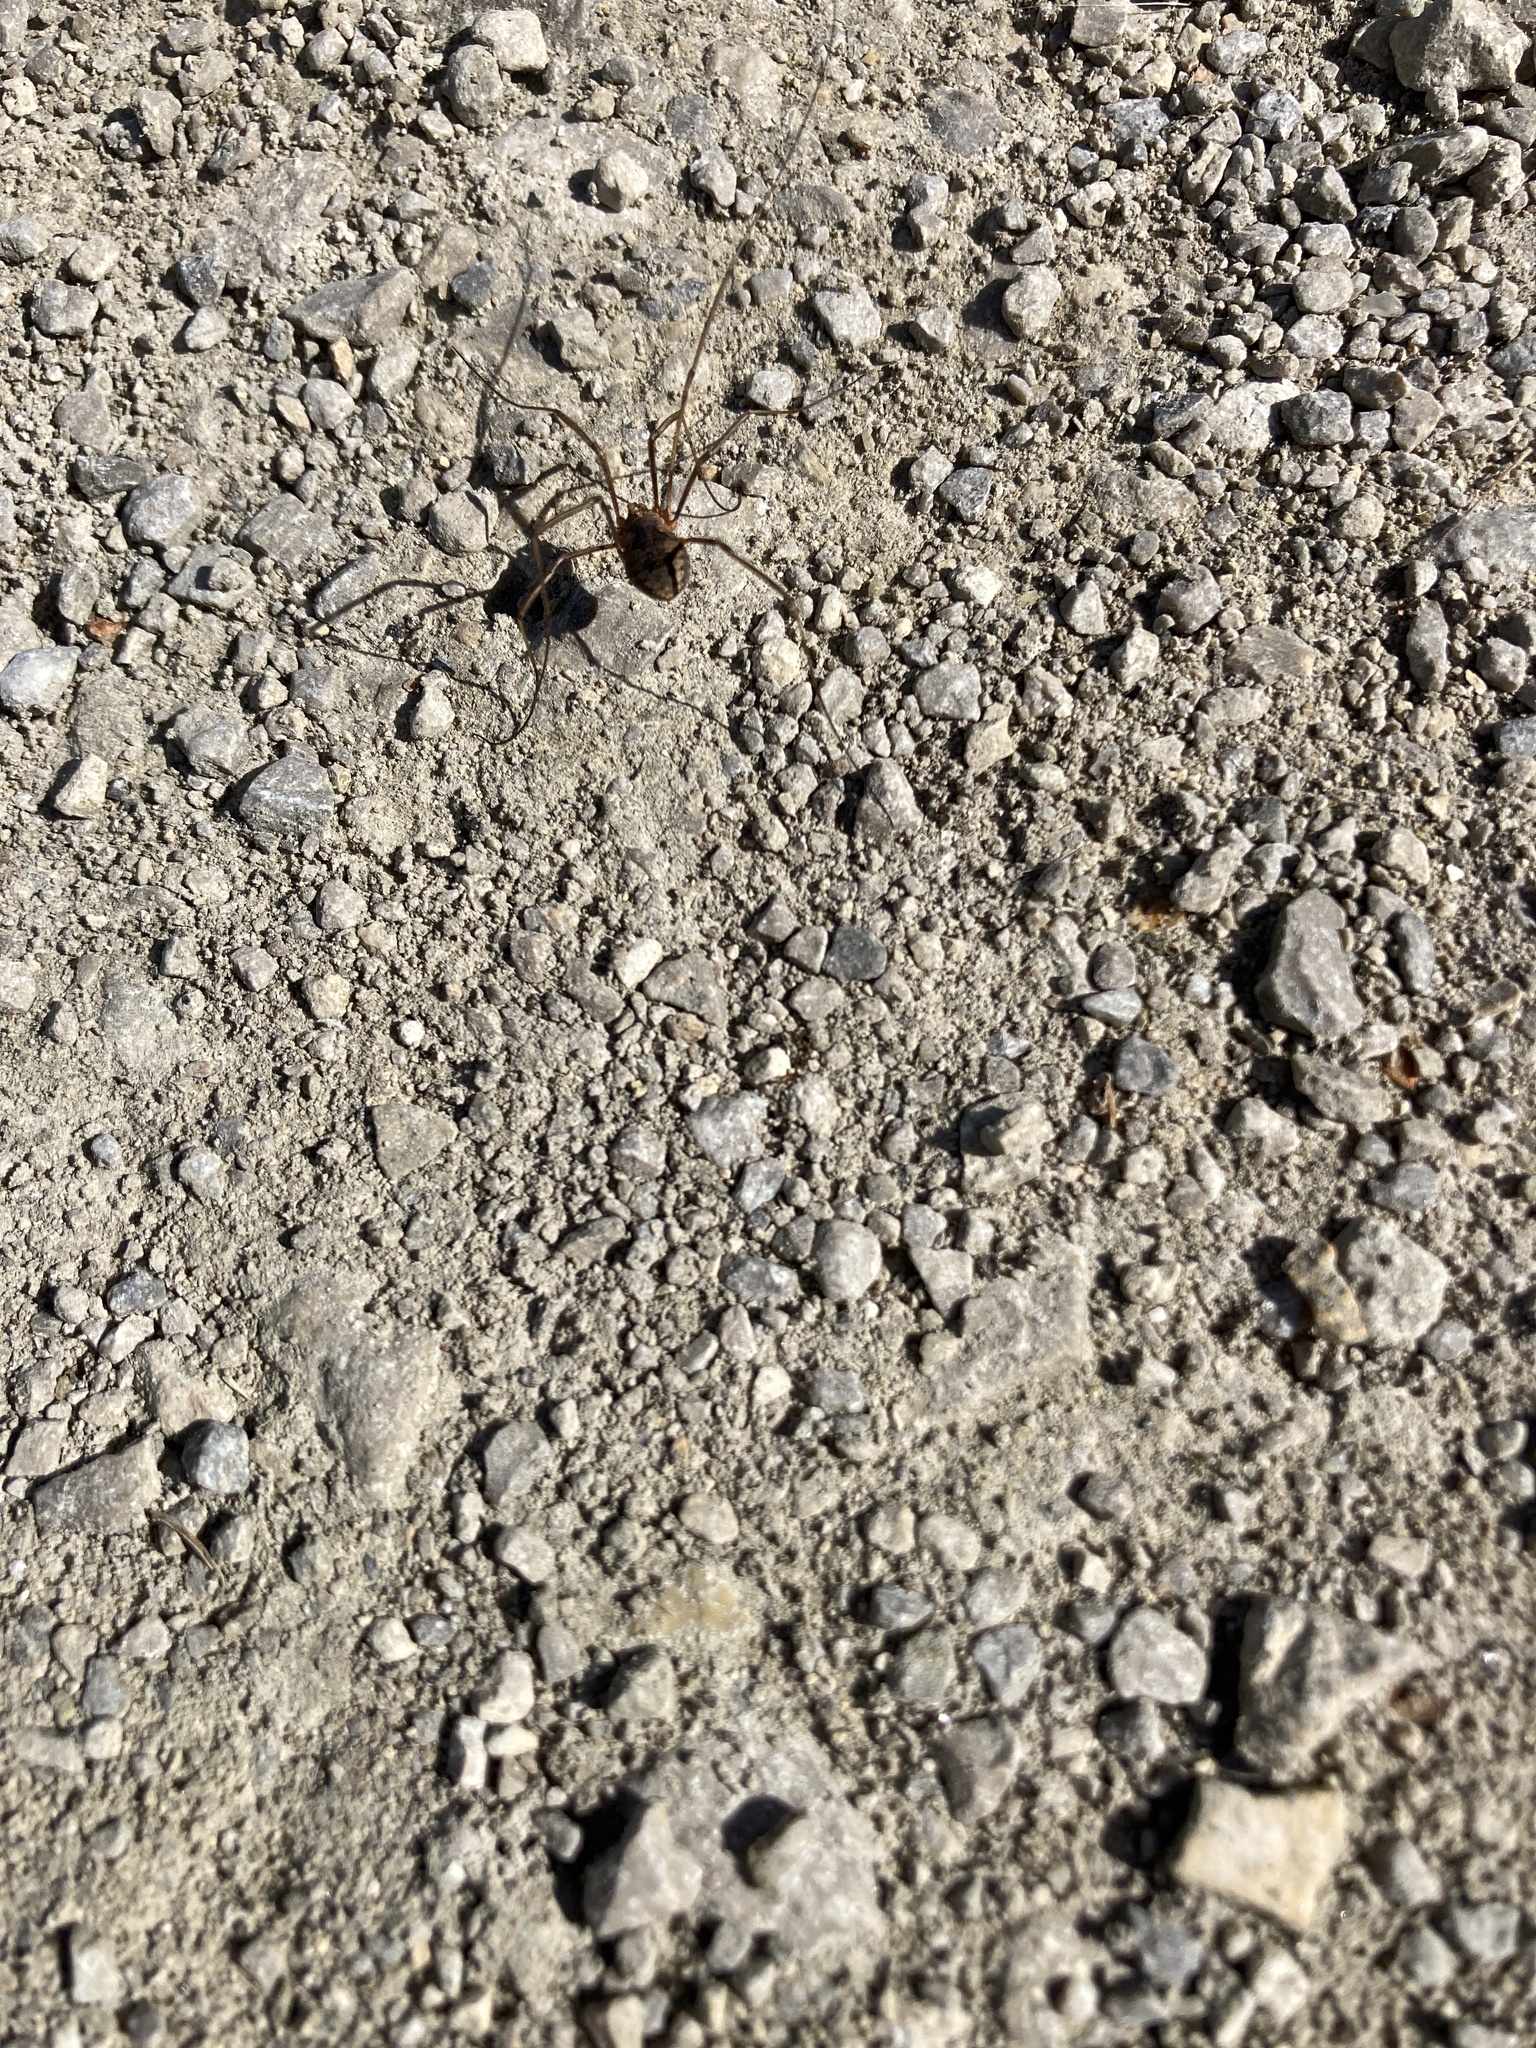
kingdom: Animalia
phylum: Arthropoda
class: Arachnida
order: Opiliones
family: Phalangiidae
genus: Phalangium
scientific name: Phalangium opilio
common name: Daddy longleg
